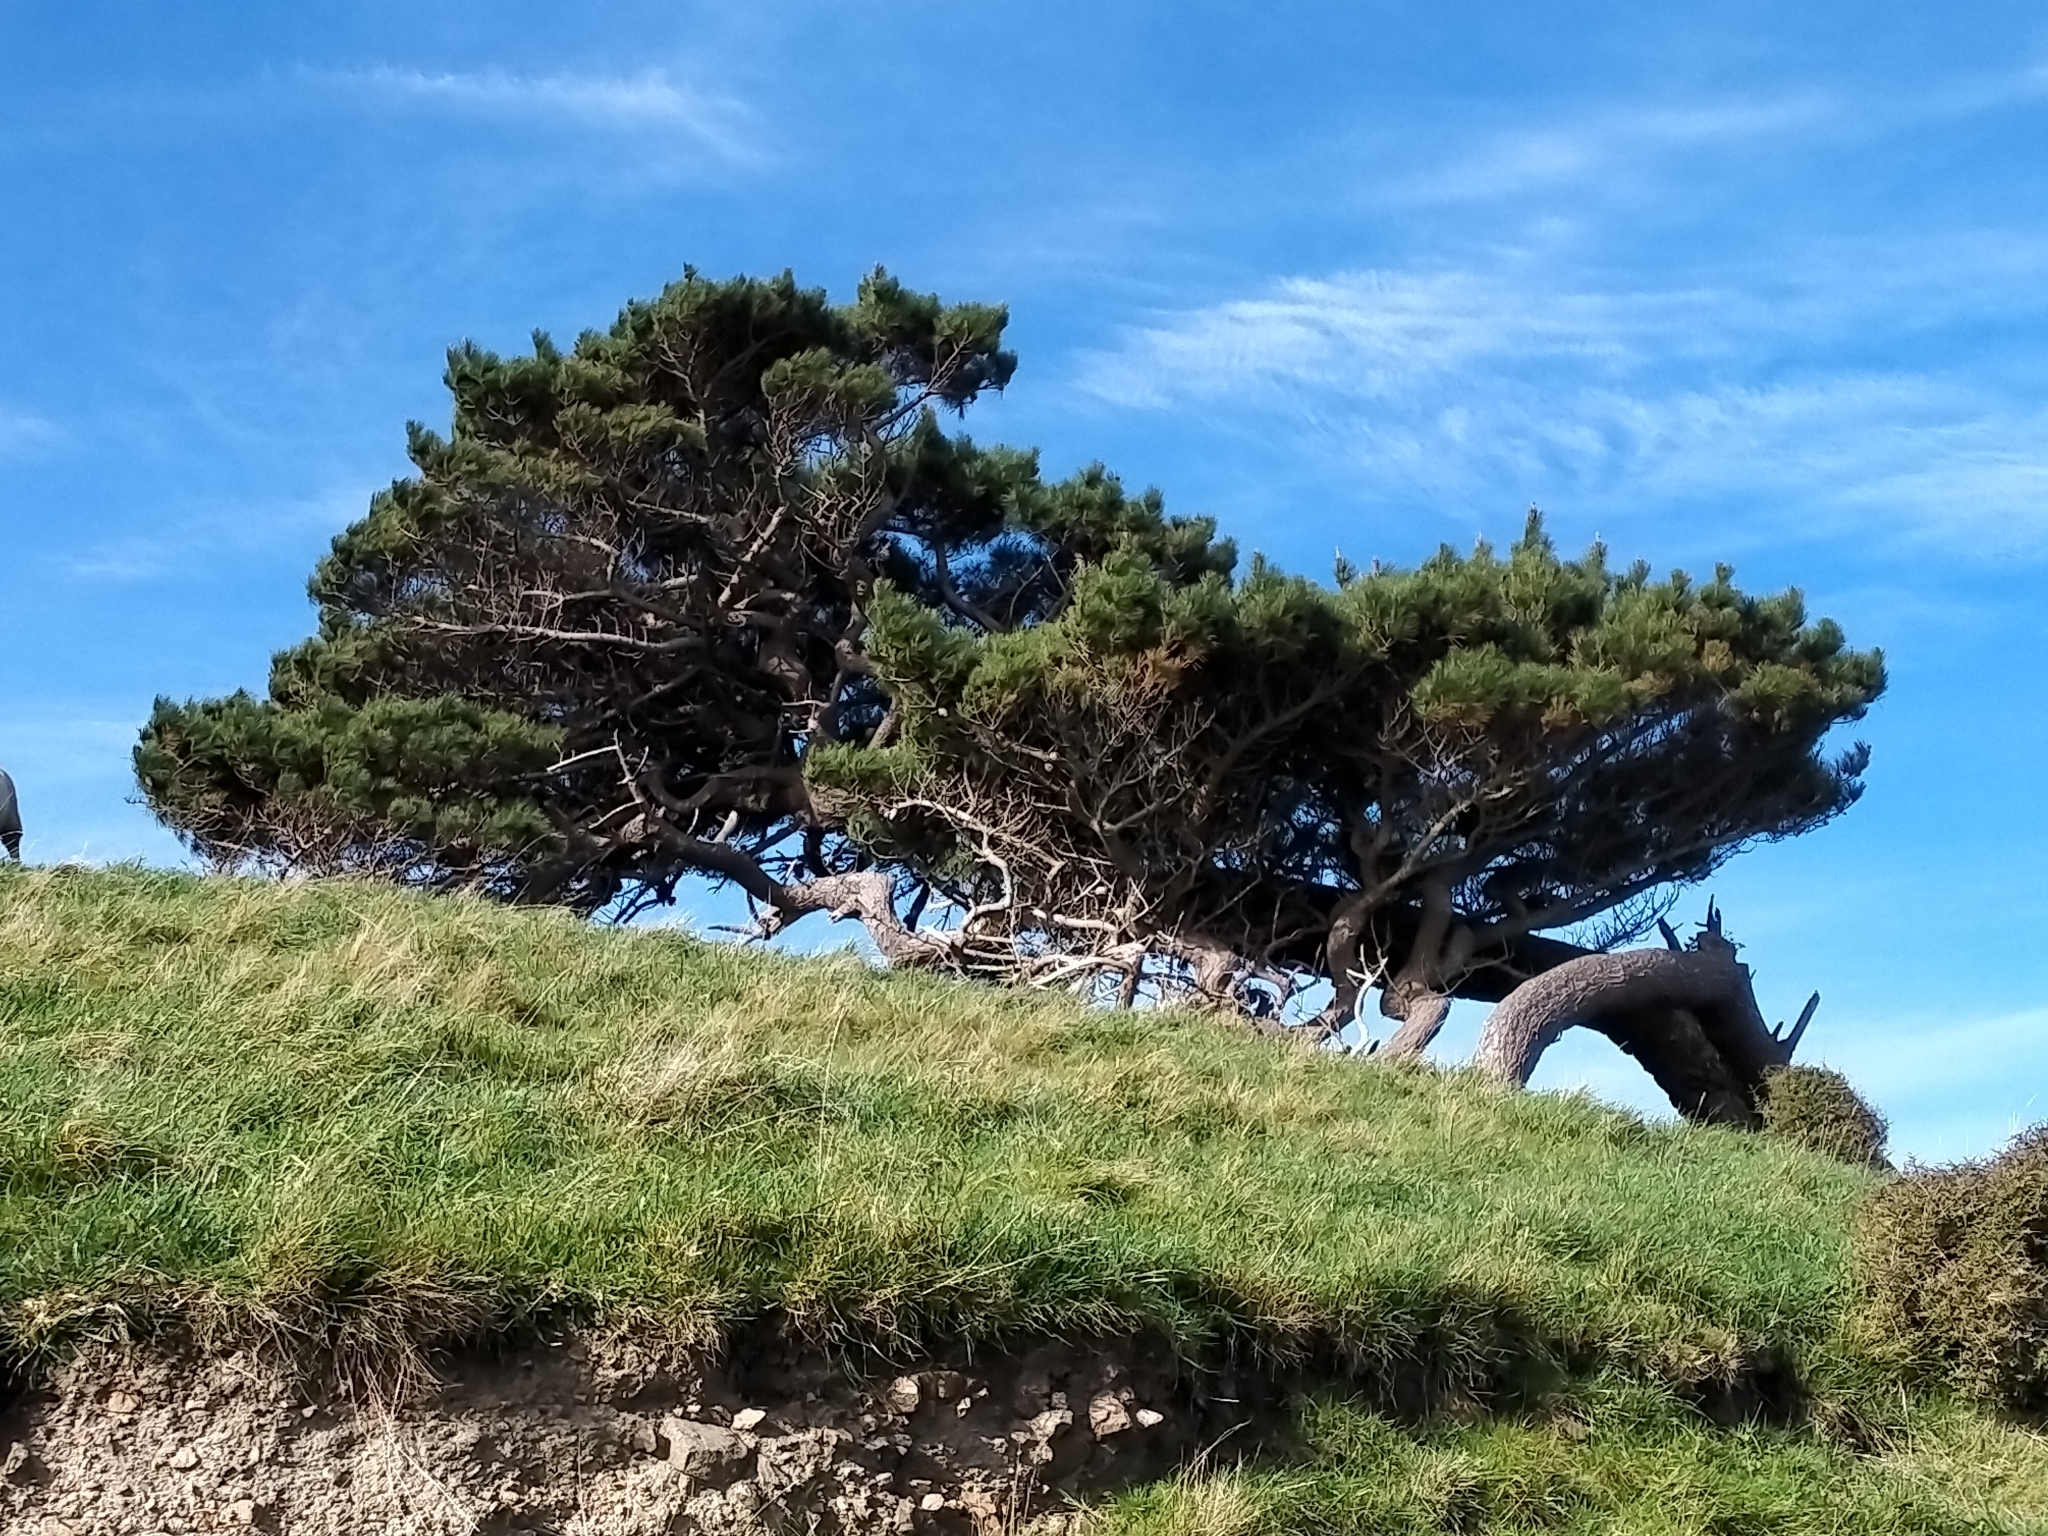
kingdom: Plantae
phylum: Tracheophyta
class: Pinopsida
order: Pinales
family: Pinaceae
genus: Pinus
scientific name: Pinus radiata
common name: Monterey pine
